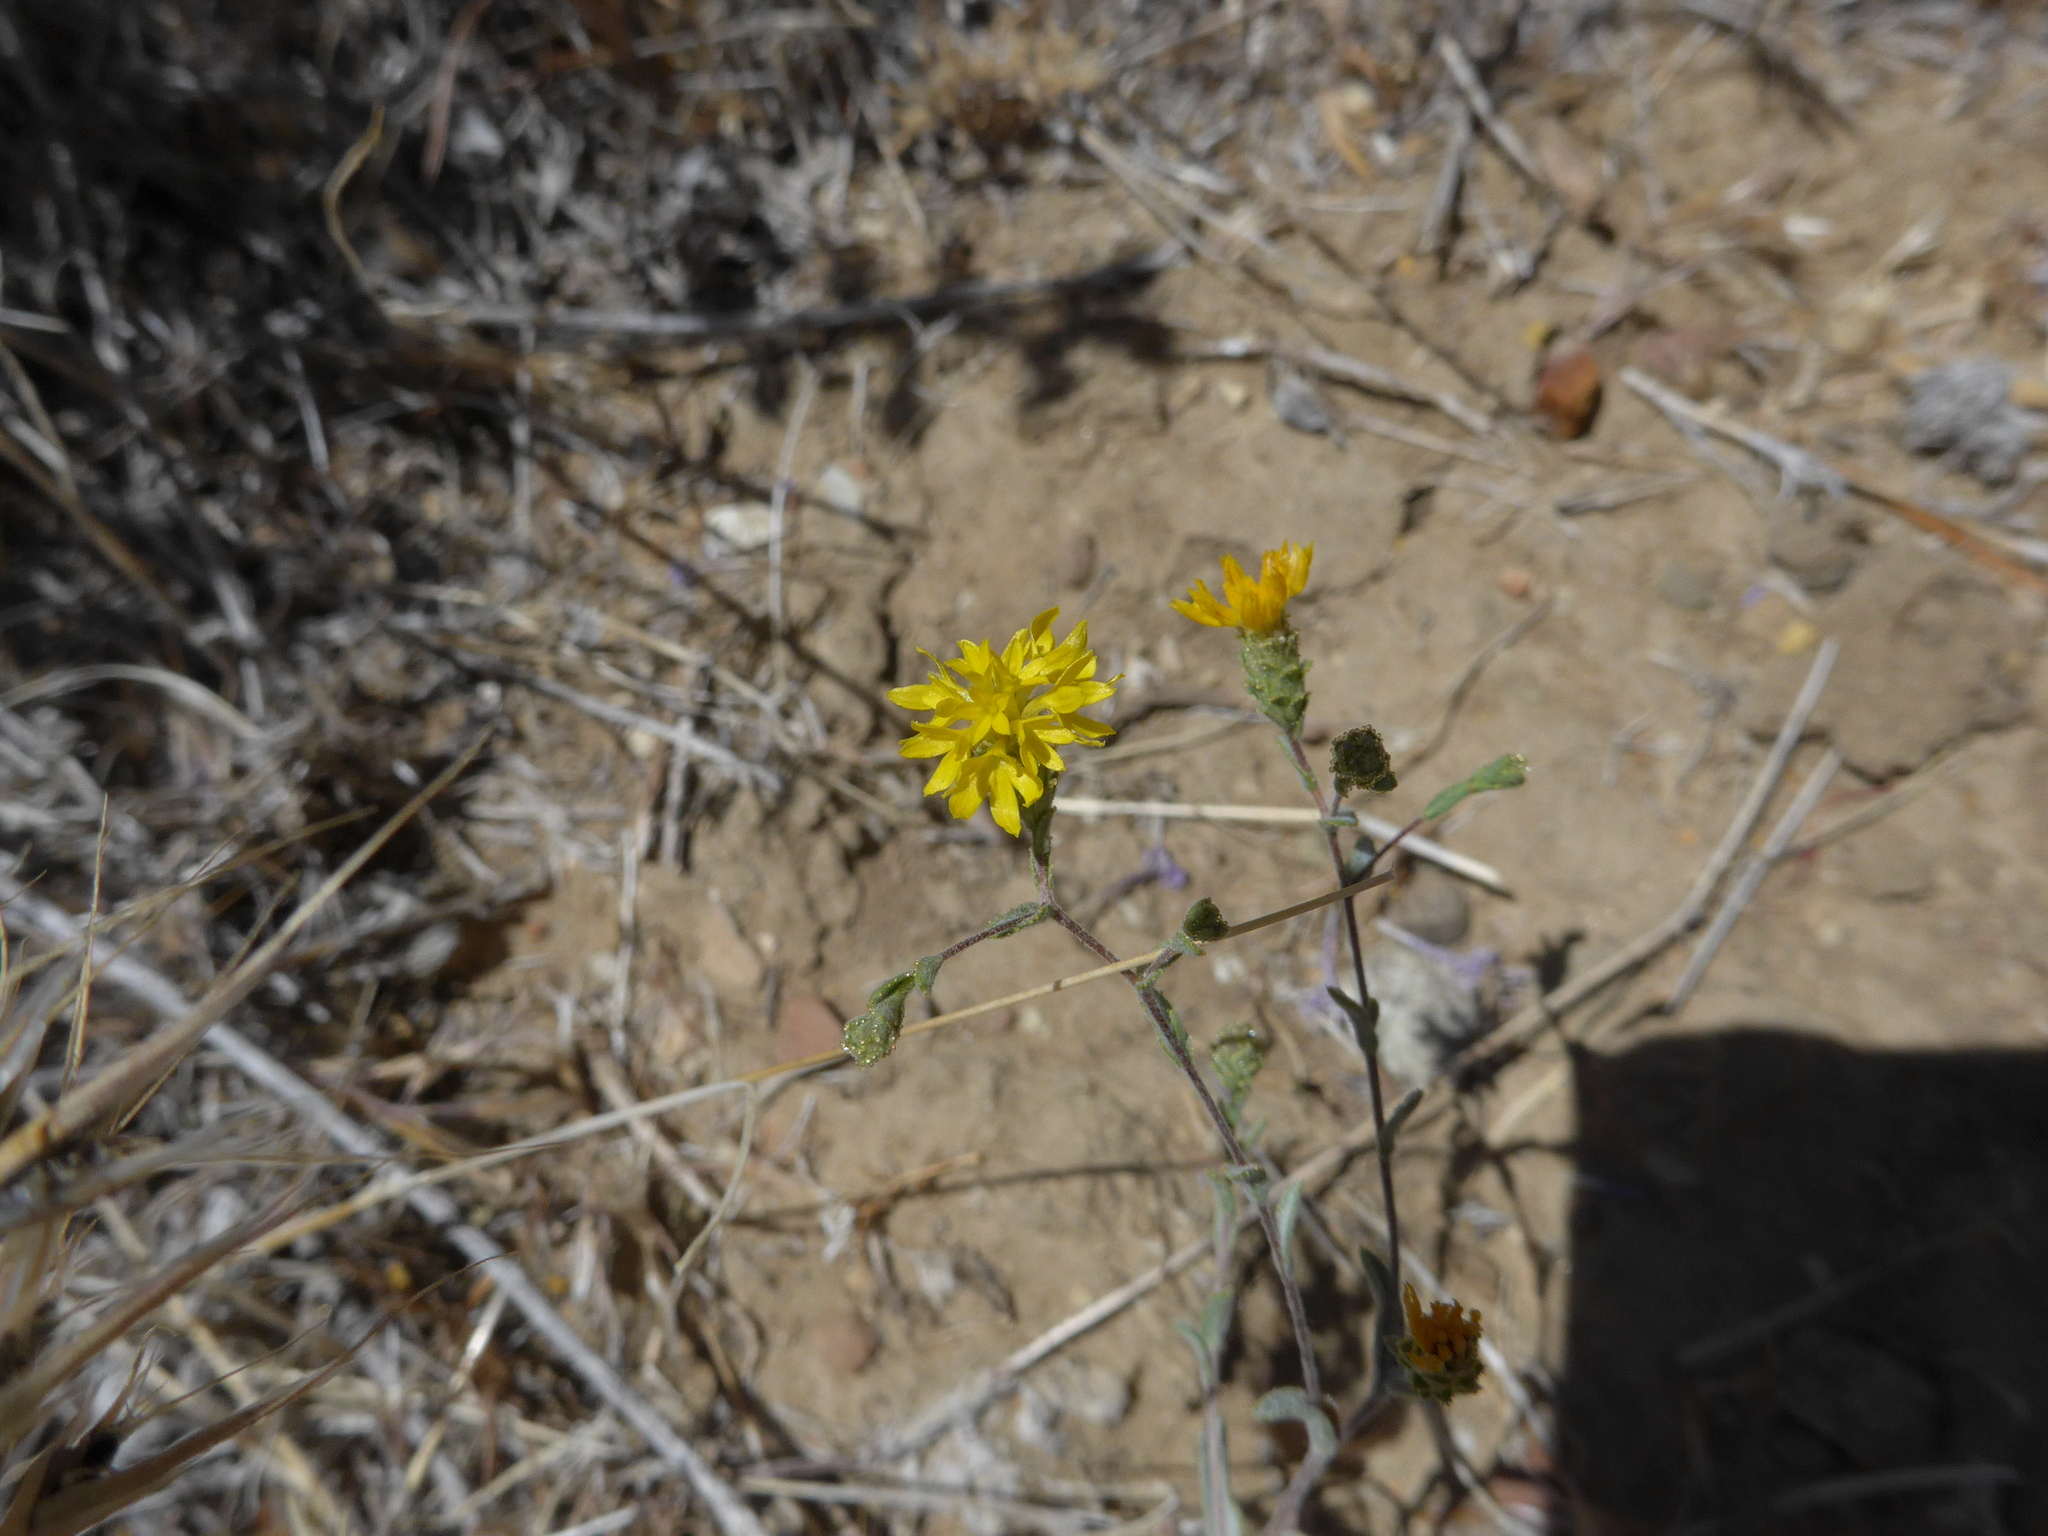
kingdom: Plantae
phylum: Tracheophyta
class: Magnoliopsida
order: Asterales
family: Asteraceae
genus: Lessingia
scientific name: Lessingia glandulifera
